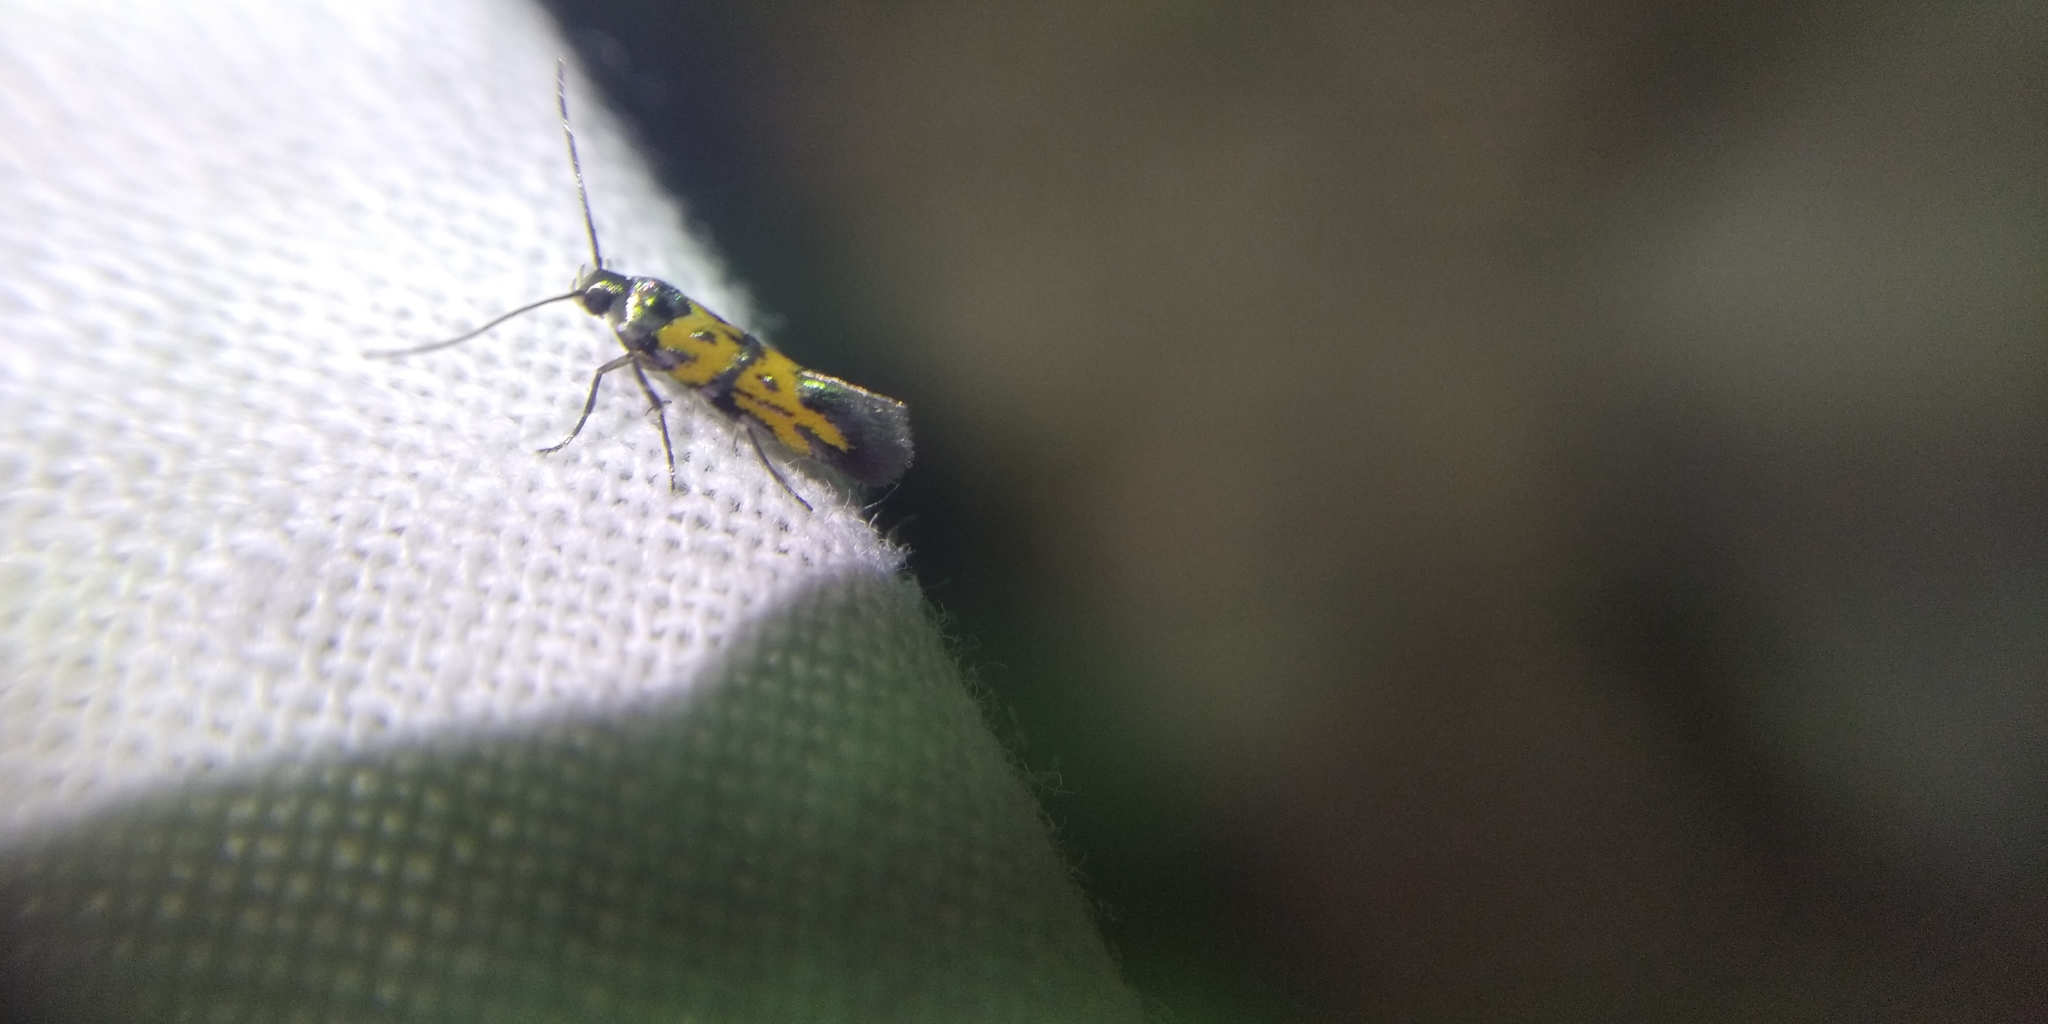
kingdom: Animalia
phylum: Arthropoda
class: Insecta
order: Lepidoptera
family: Gelechiidae
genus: Chrysoesthia
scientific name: Chrysoesthia drurella
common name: Flame neb
